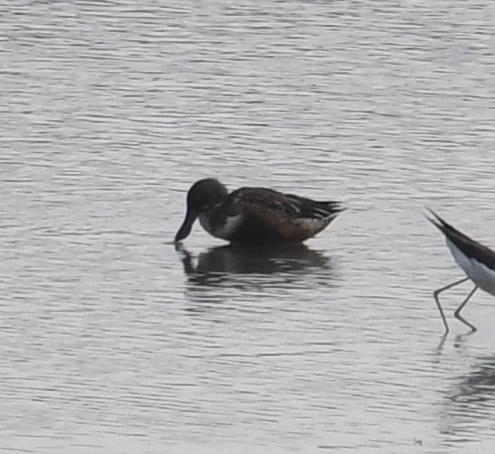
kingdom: Animalia
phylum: Chordata
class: Aves
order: Anseriformes
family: Anatidae
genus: Spatula
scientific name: Spatula clypeata
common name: Northern shoveler
